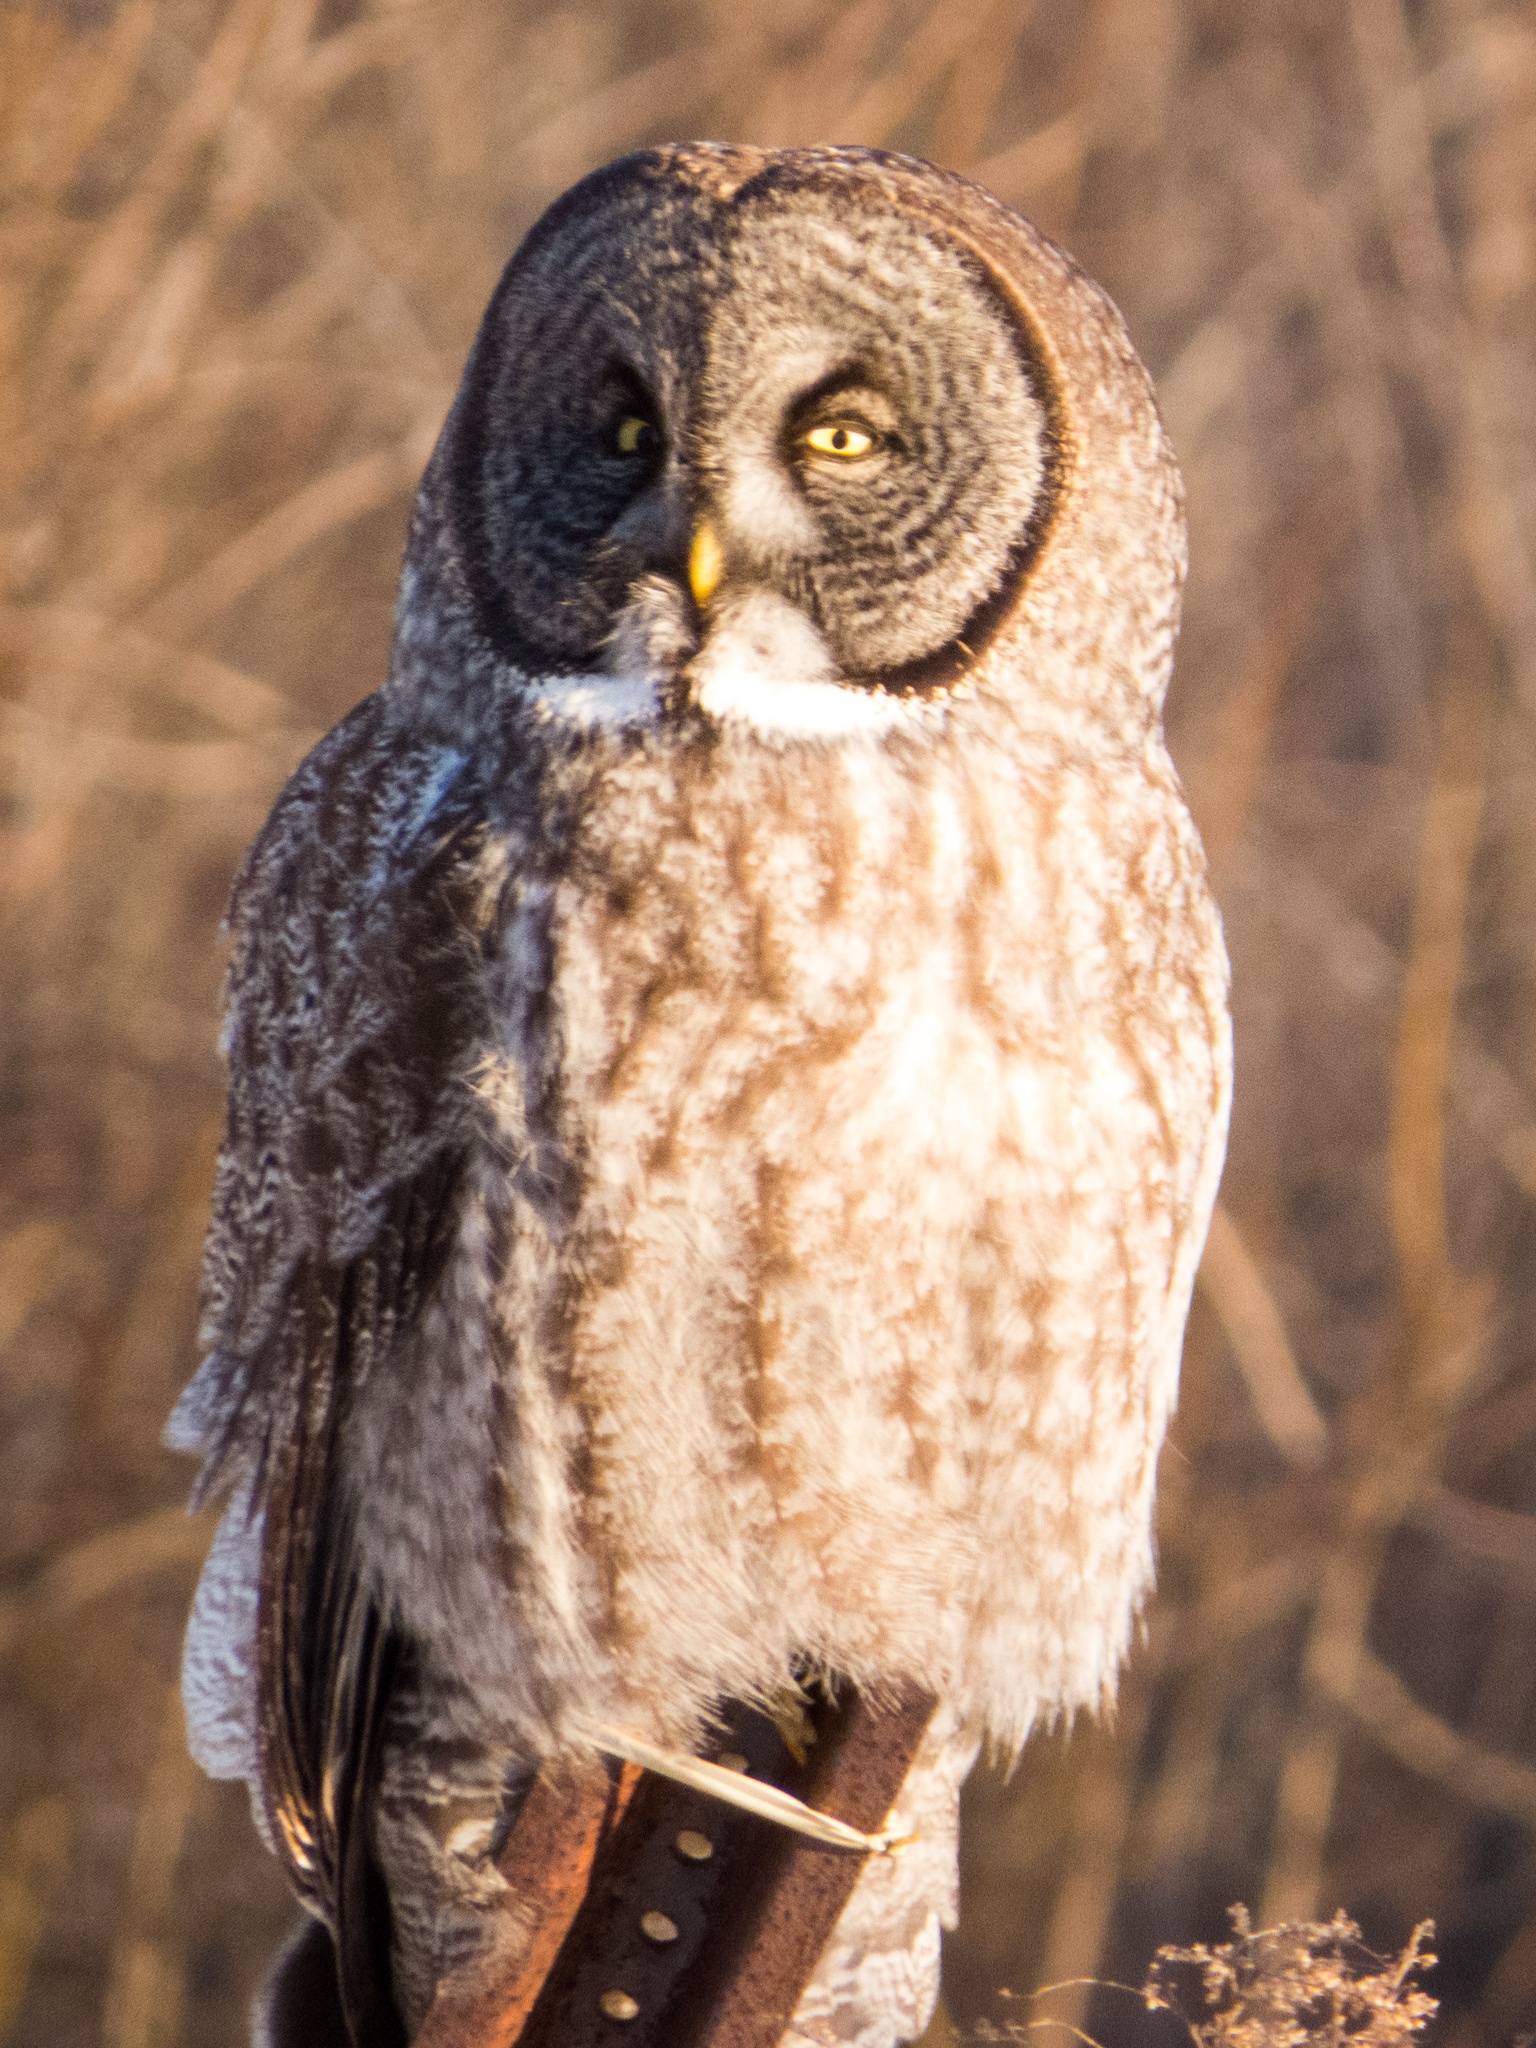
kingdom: Animalia
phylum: Chordata
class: Aves
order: Strigiformes
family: Strigidae
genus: Strix
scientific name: Strix nebulosa
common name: Great grey owl
